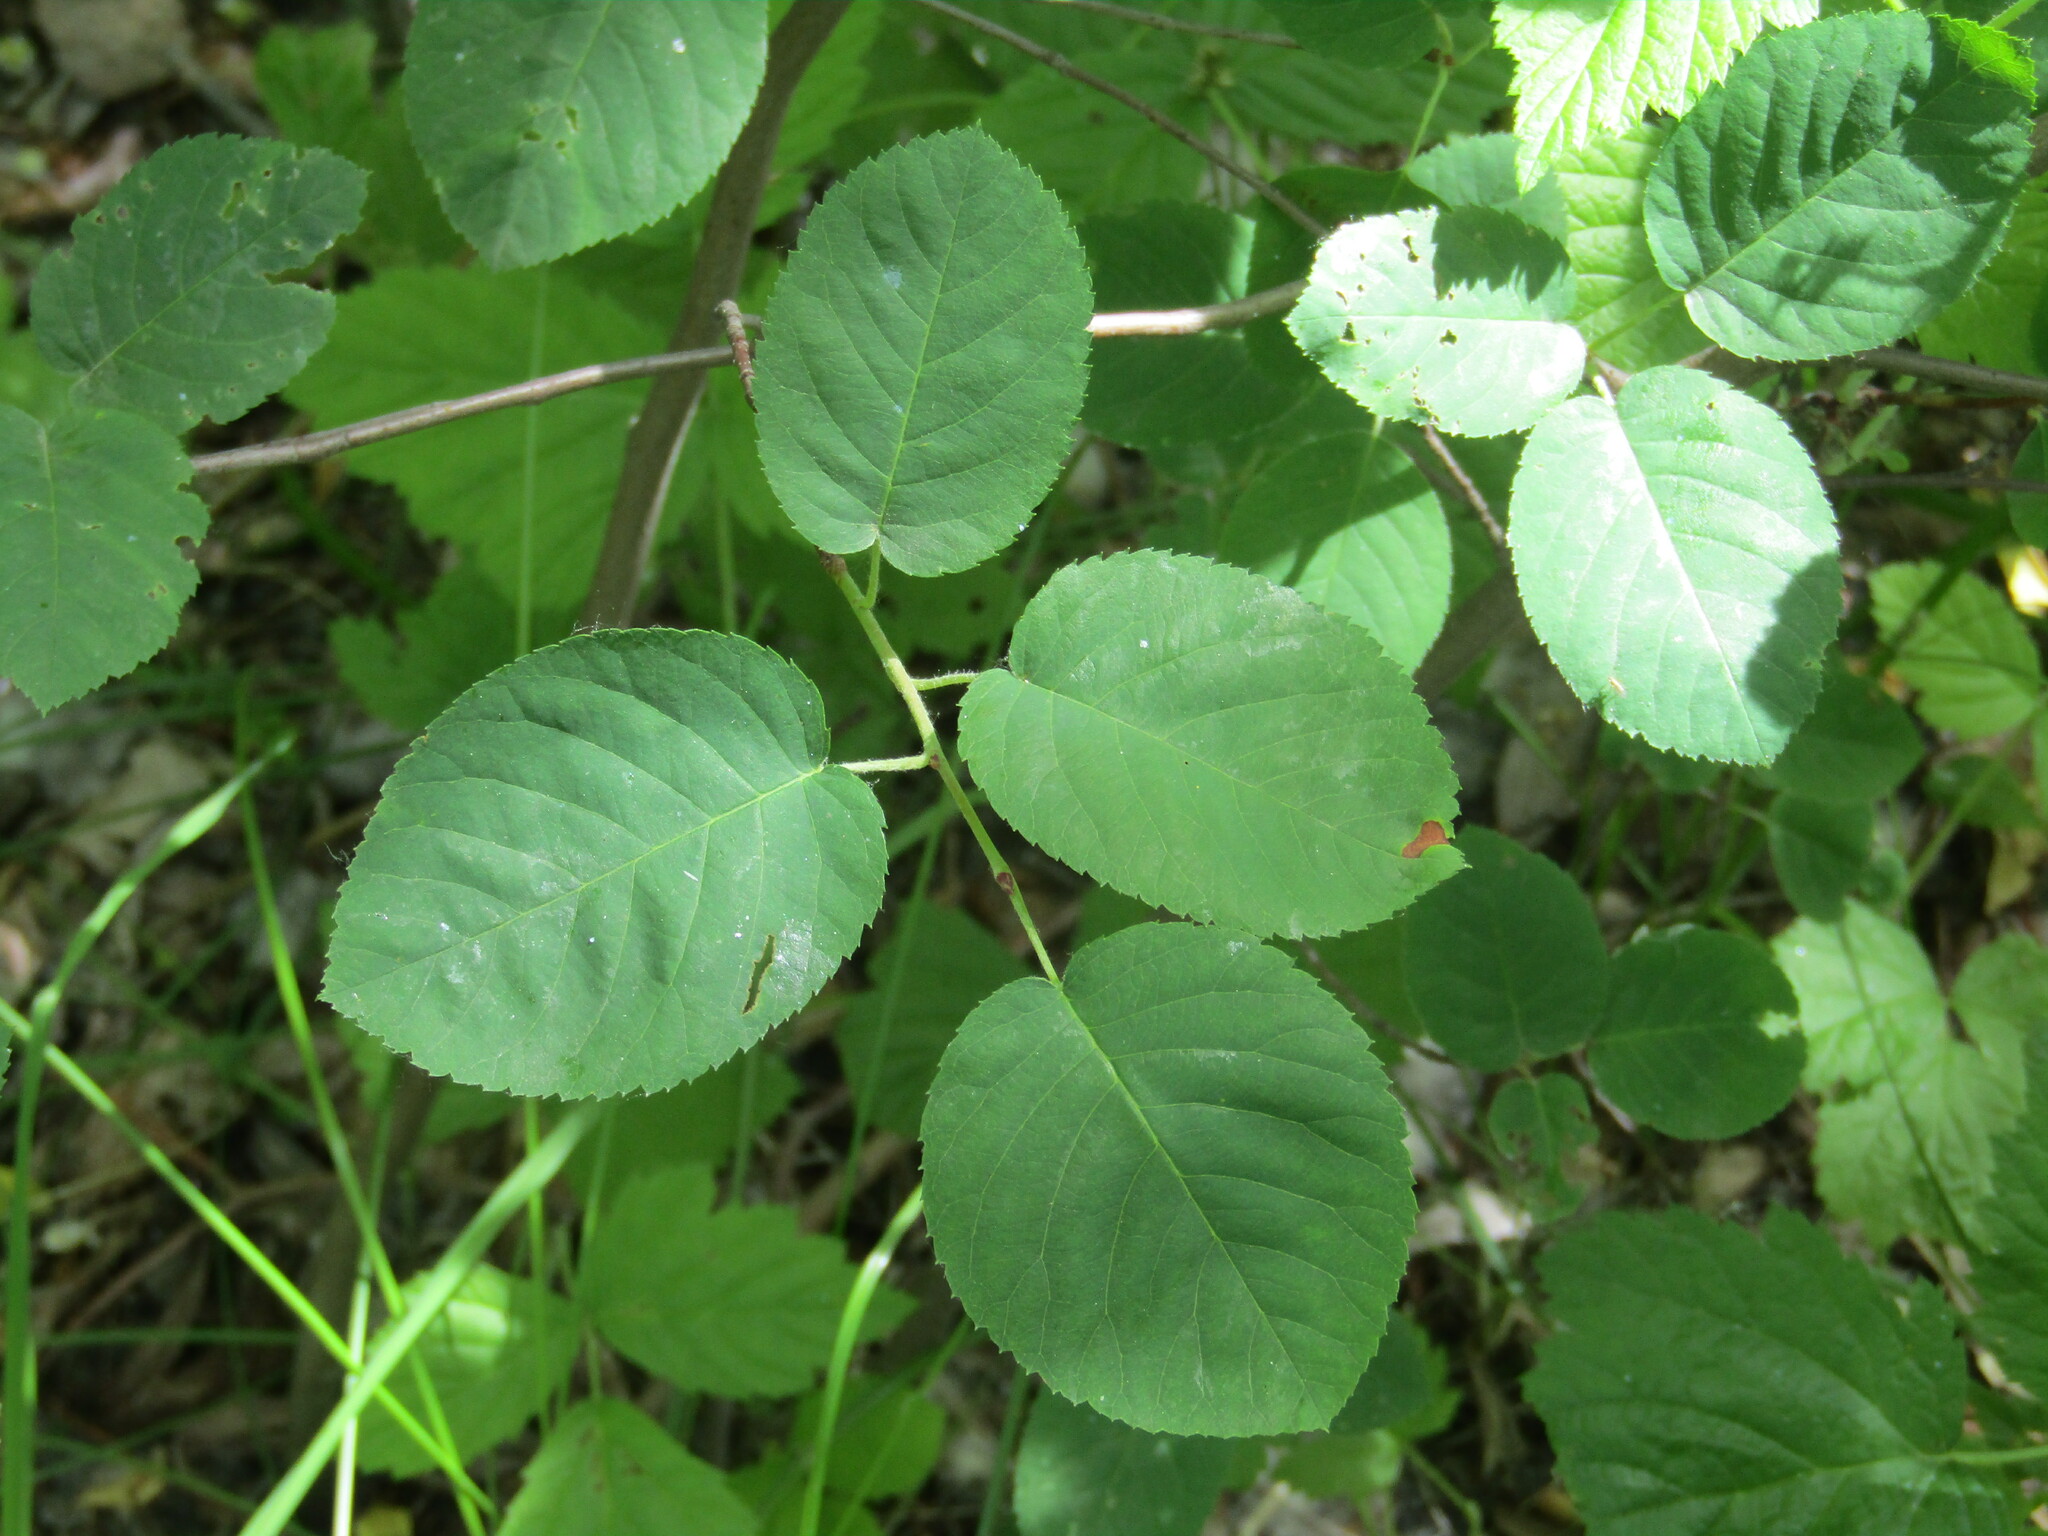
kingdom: Plantae
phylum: Tracheophyta
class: Magnoliopsida
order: Rosales
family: Rosaceae
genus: Amelanchier
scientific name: Amelanchier
